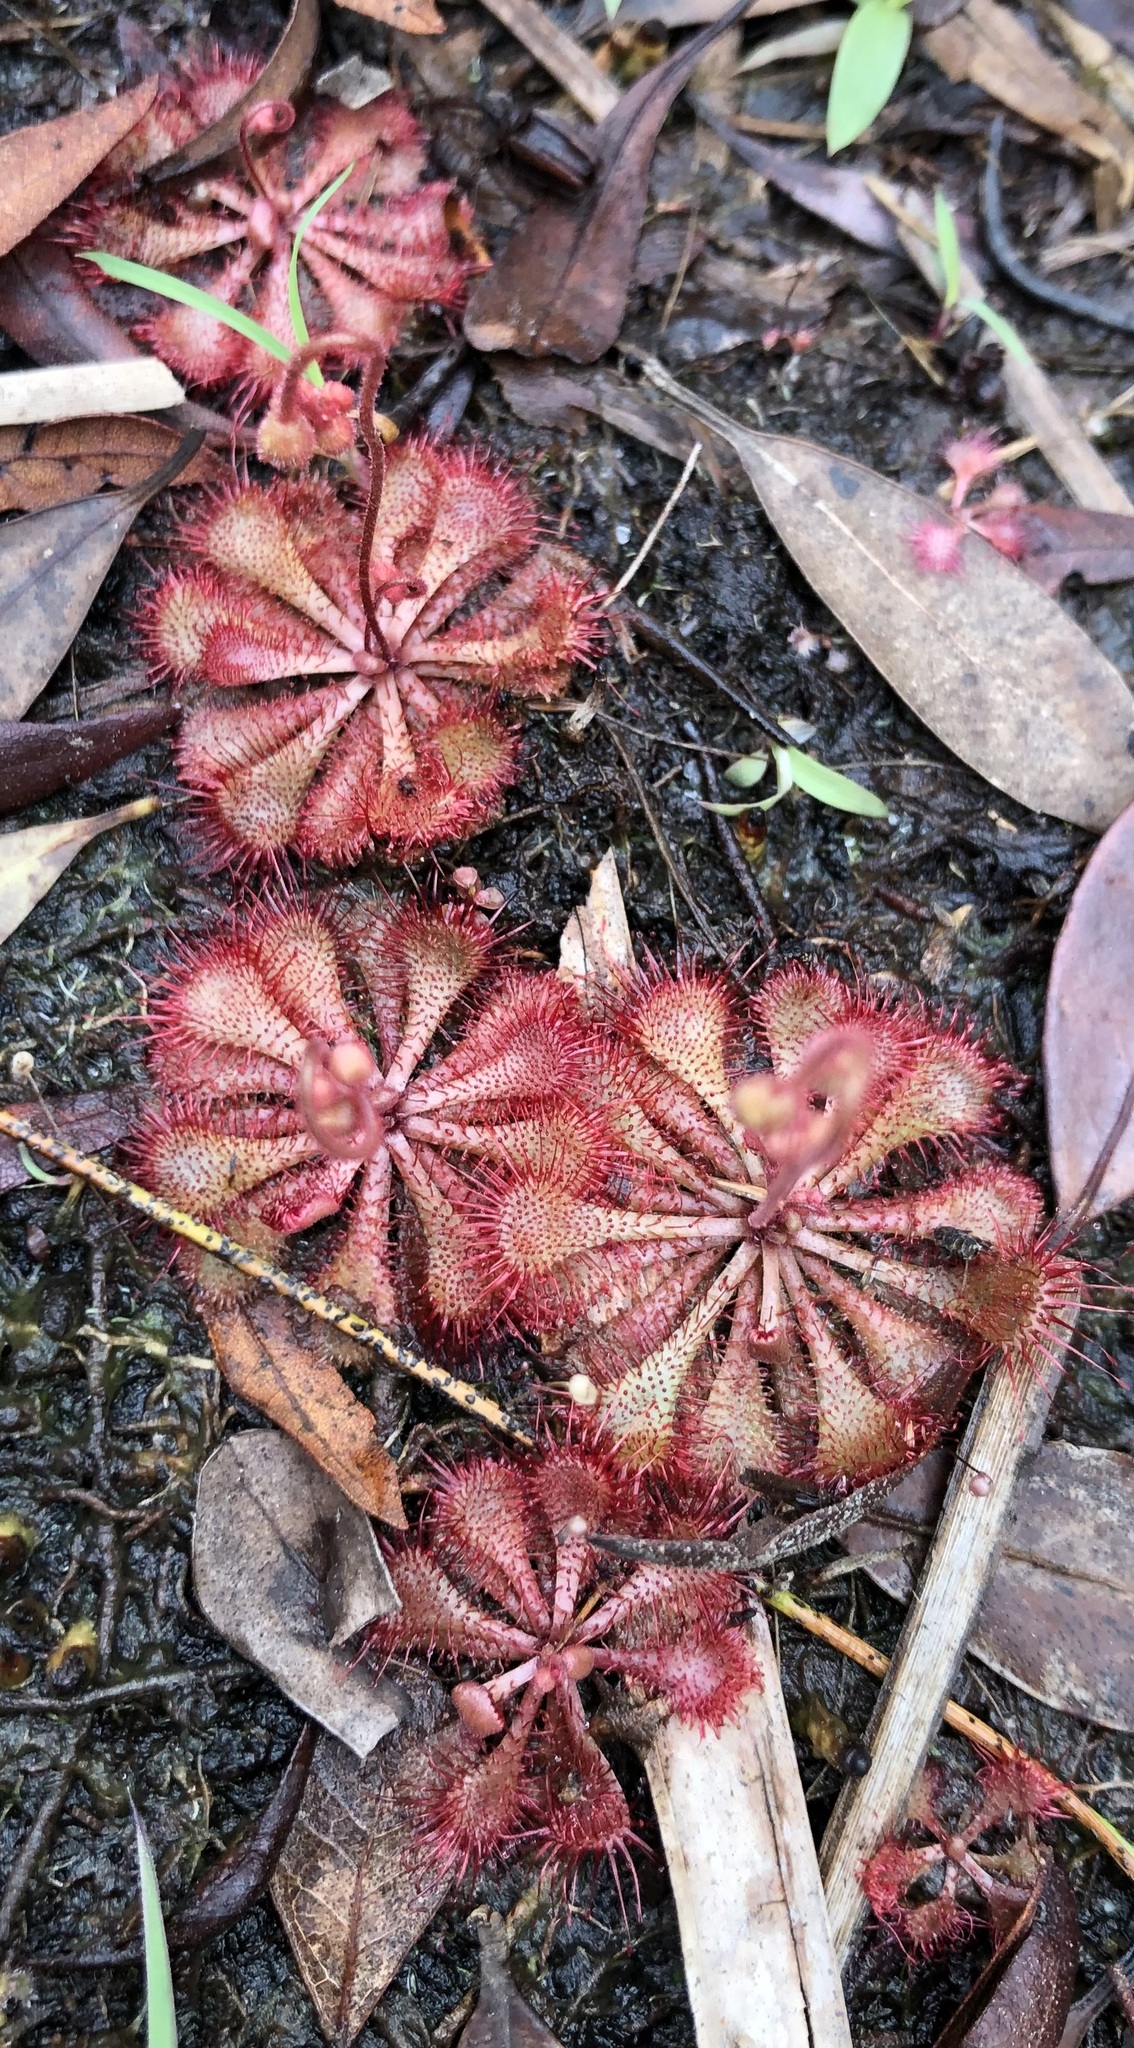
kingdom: Plantae
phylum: Tracheophyta
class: Magnoliopsida
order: Caryophyllales
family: Droseraceae
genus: Drosera
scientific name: Drosera brevifolia
